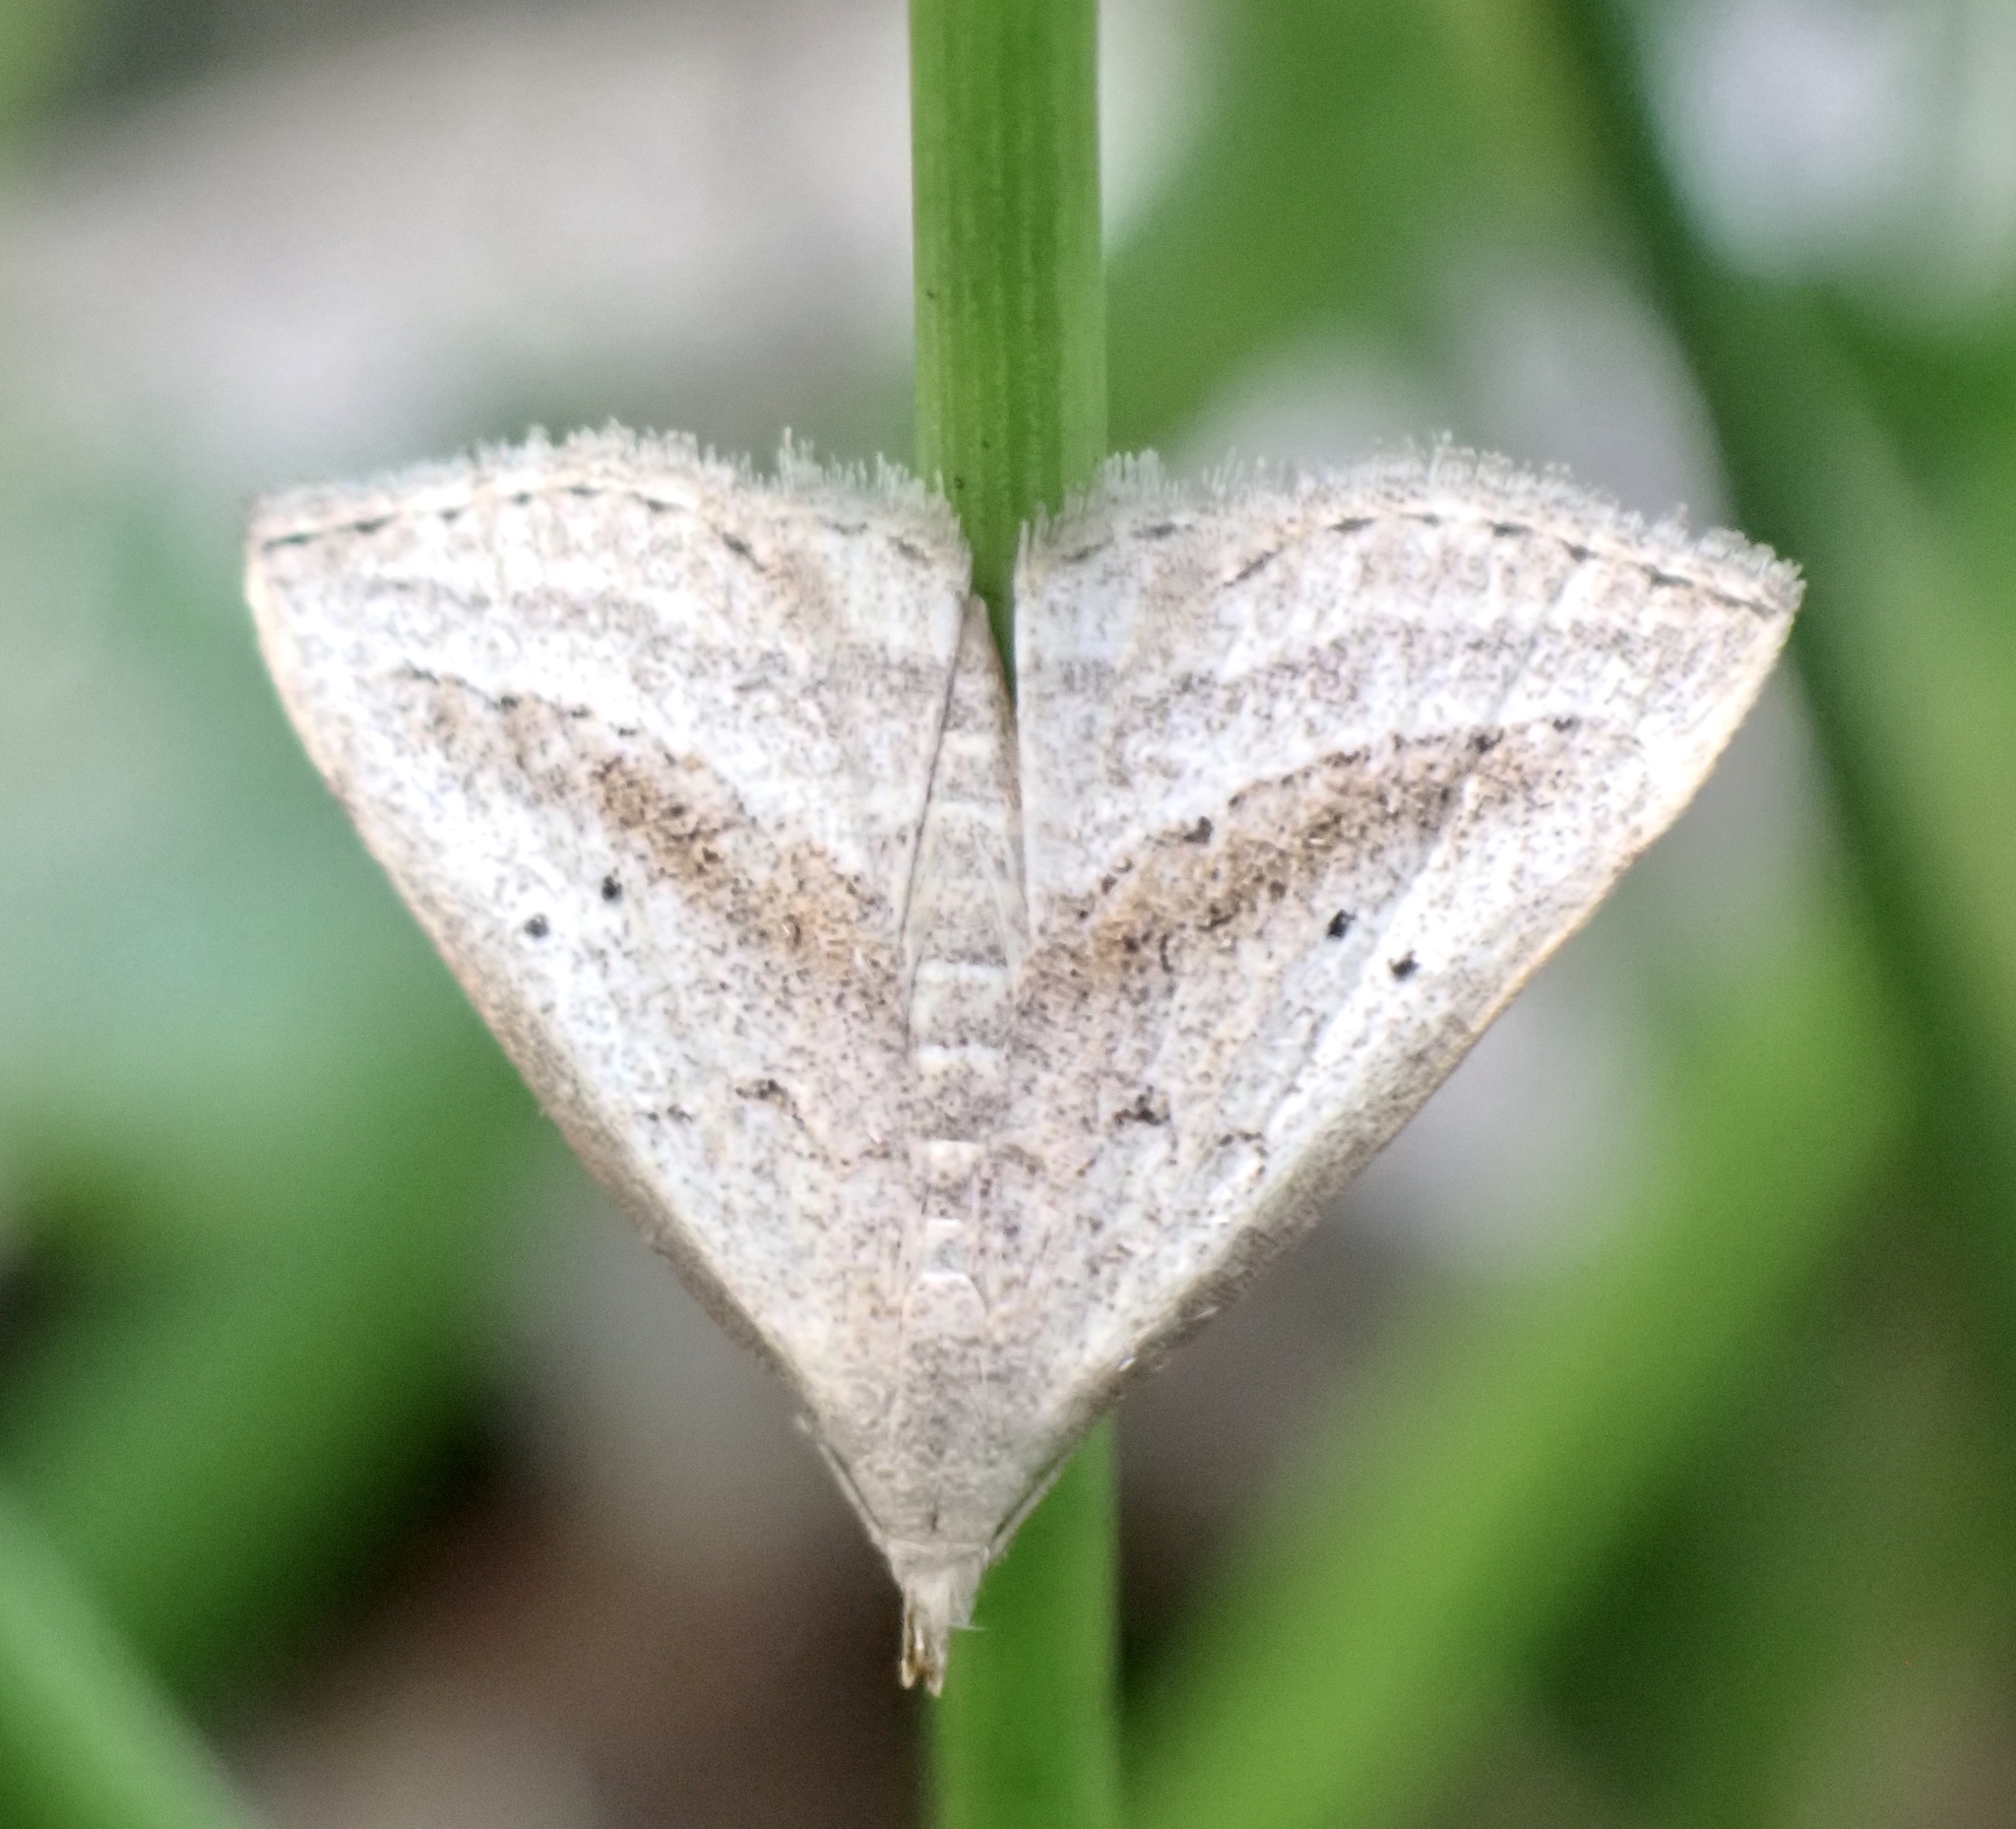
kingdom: Animalia
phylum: Arthropoda
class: Insecta
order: Lepidoptera
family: Erebidae
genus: Macrochilo
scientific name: Macrochilo hypocritalis
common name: Twin-dotted owlet
